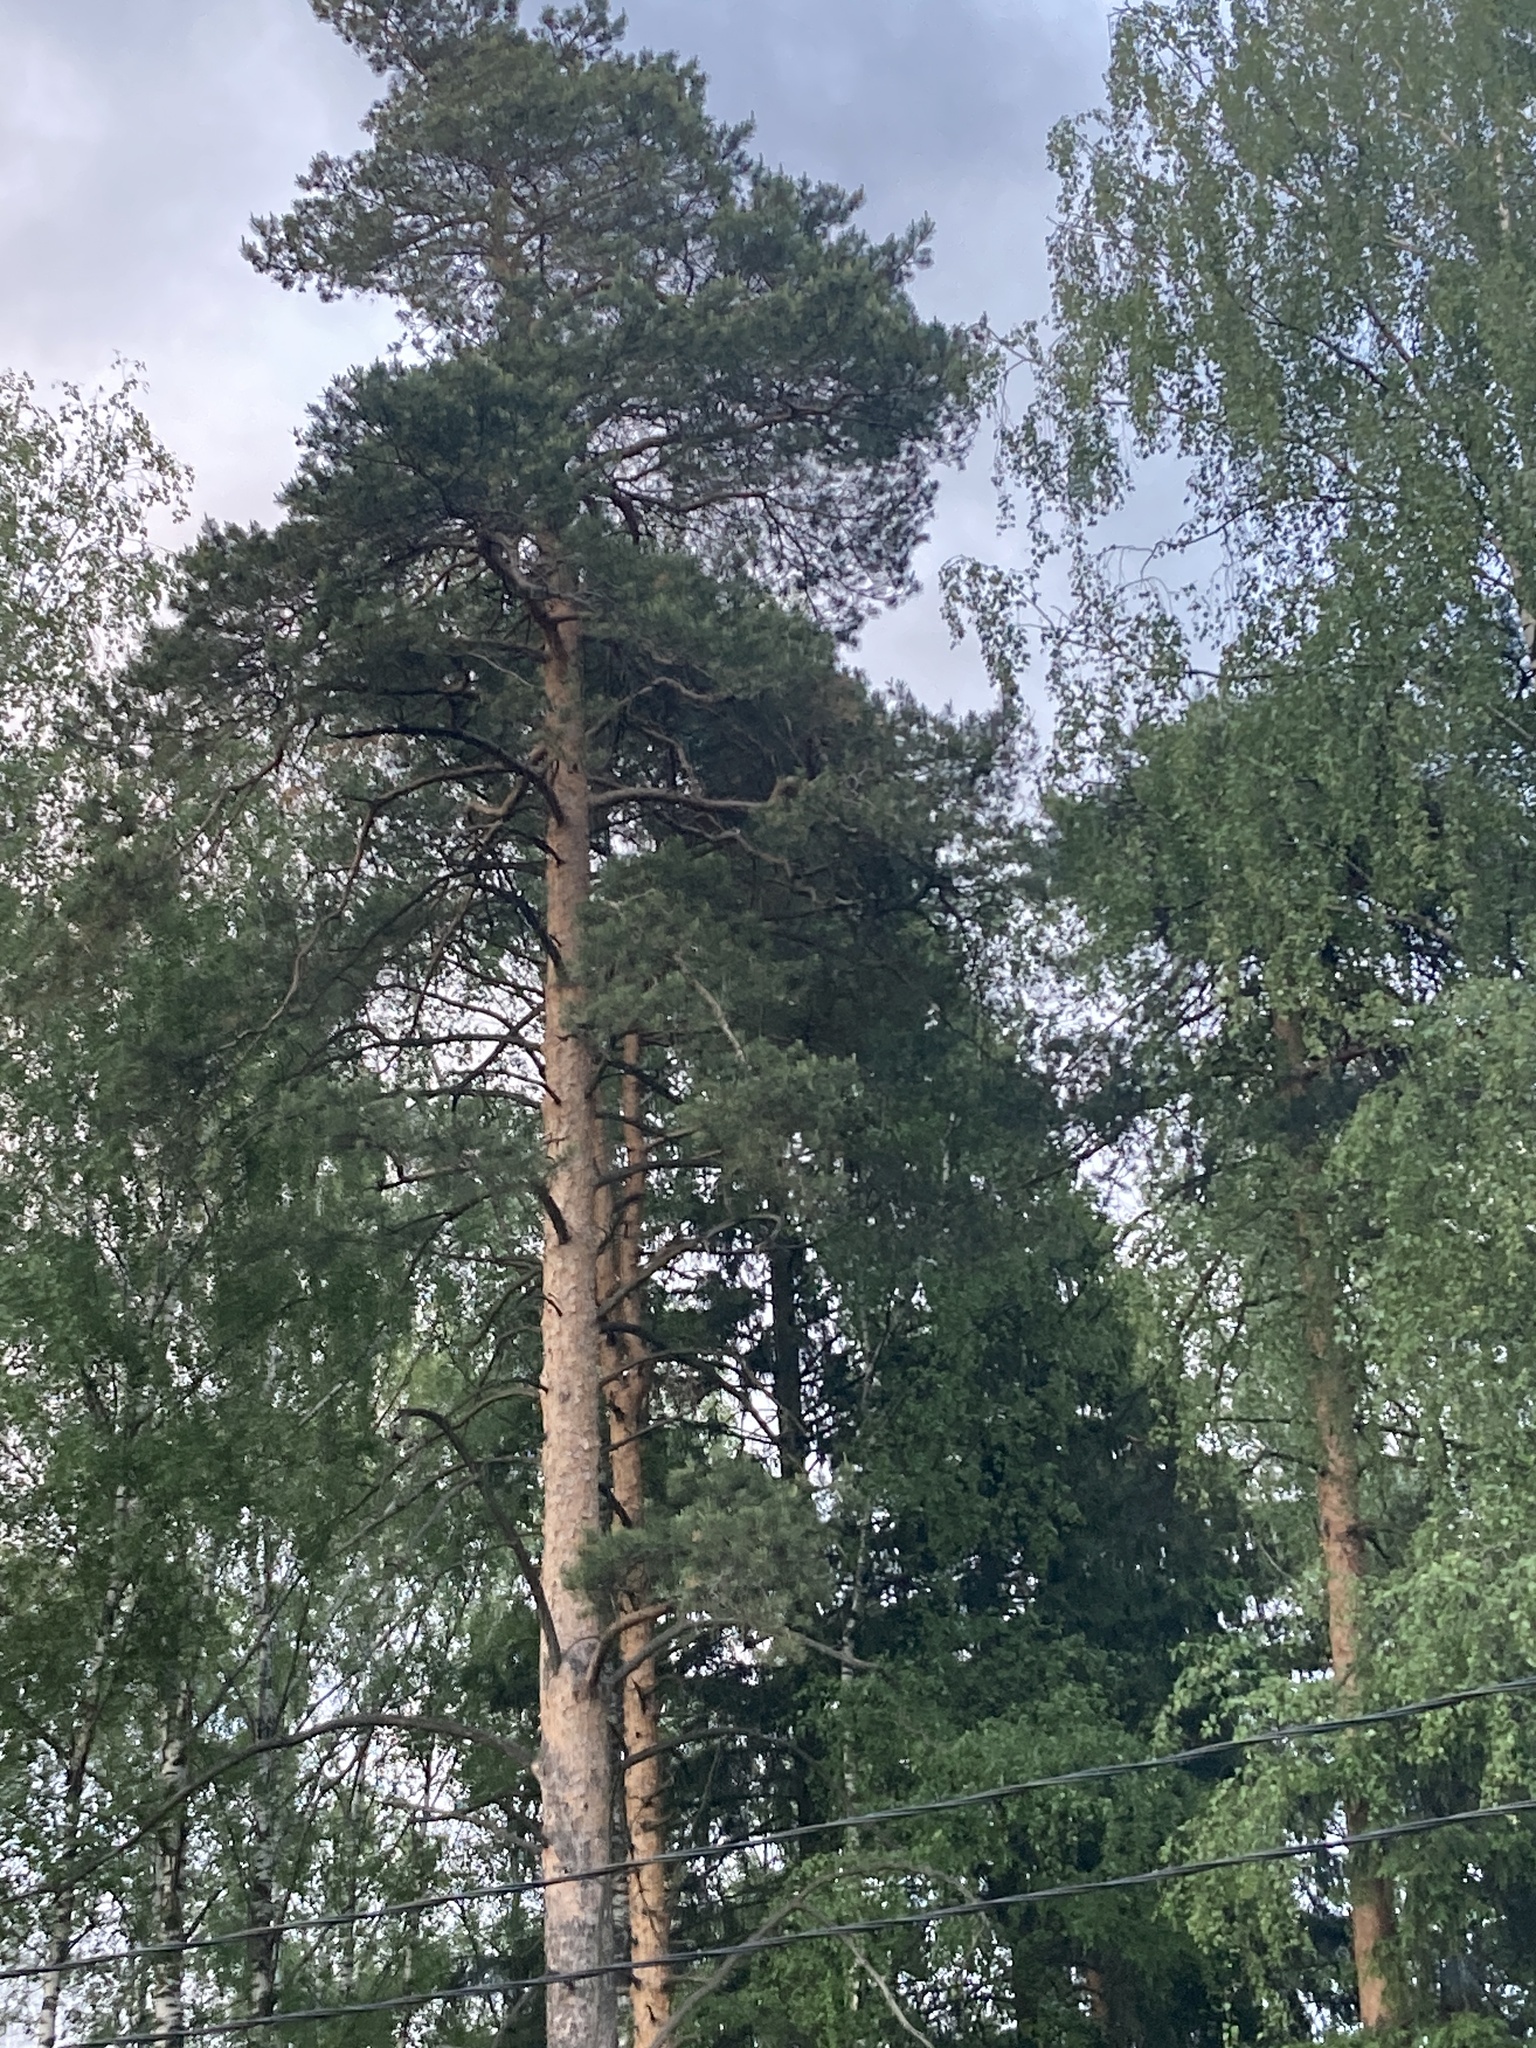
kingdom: Plantae
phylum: Tracheophyta
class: Pinopsida
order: Pinales
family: Pinaceae
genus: Pinus
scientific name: Pinus sylvestris
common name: Scots pine
